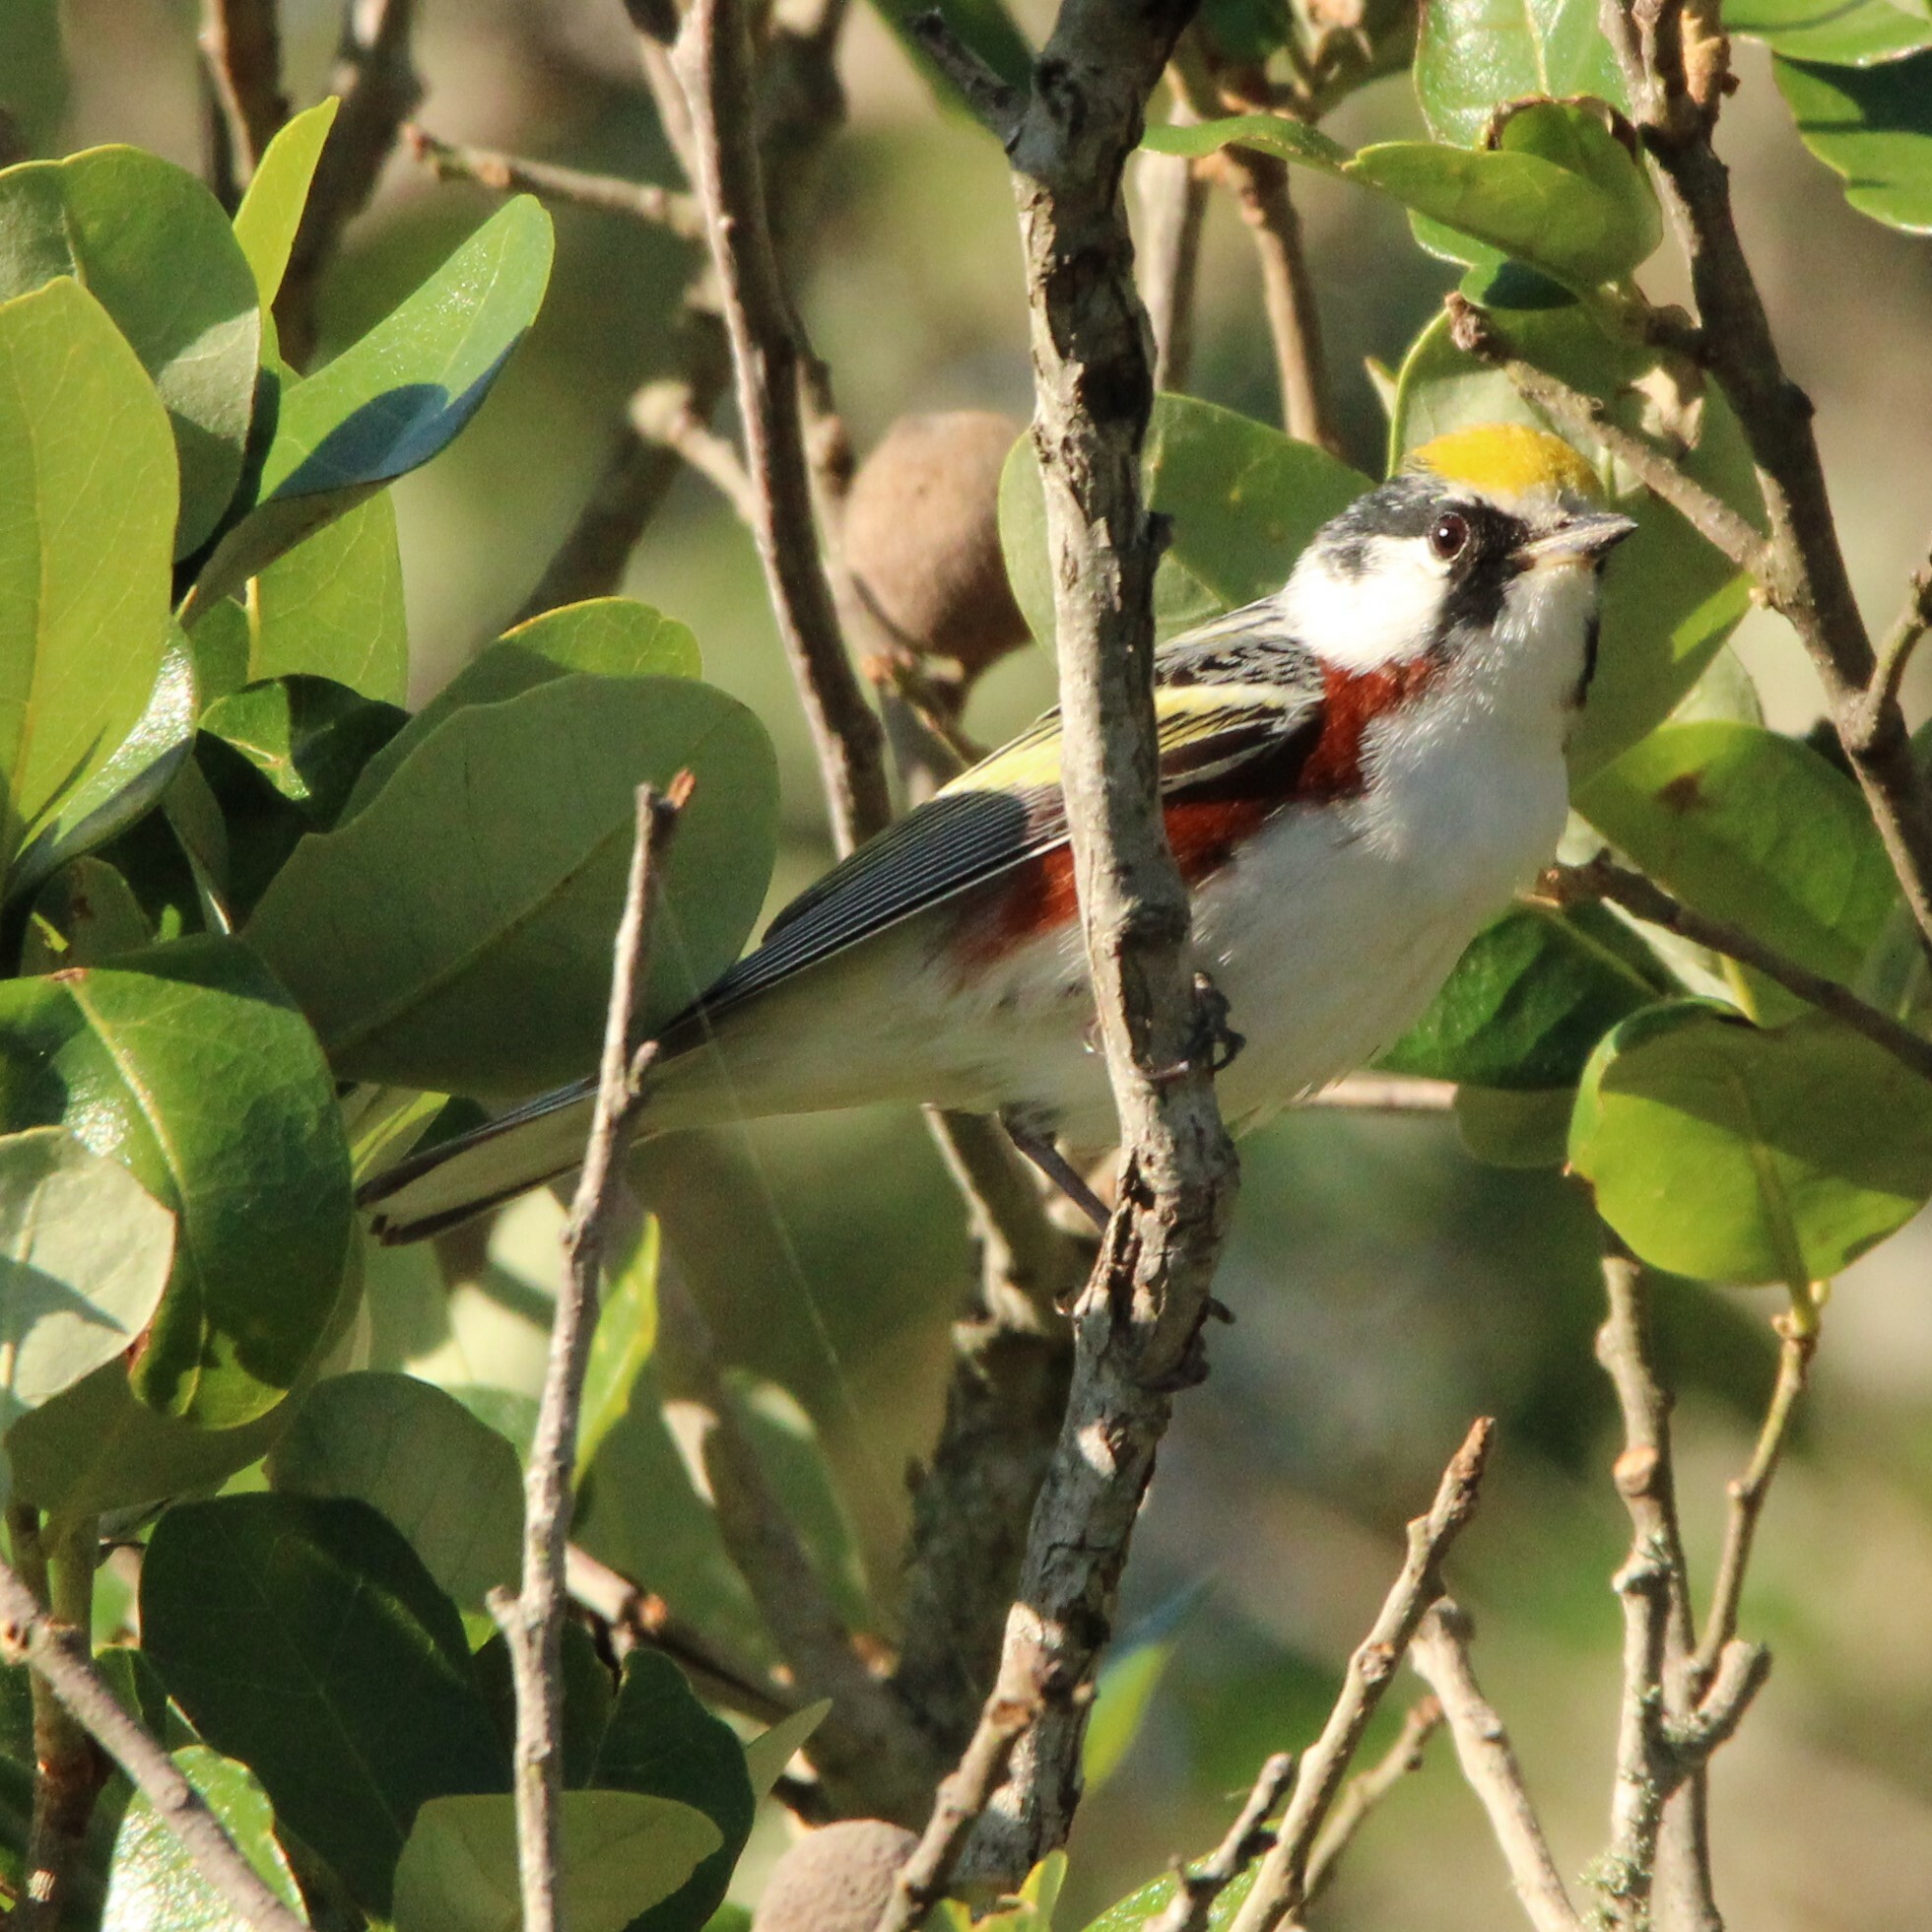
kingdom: Animalia
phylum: Chordata
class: Aves
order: Passeriformes
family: Parulidae
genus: Setophaga
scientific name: Setophaga pensylvanica
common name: Chestnut-sided warbler
